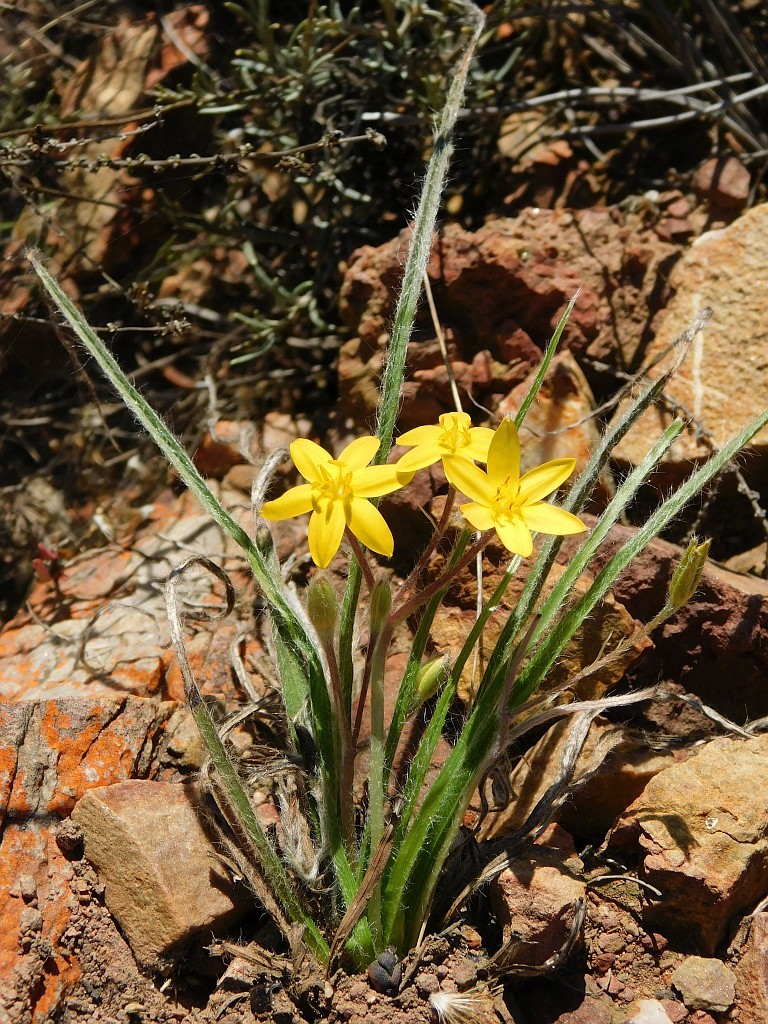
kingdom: Plantae
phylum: Tracheophyta
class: Liliopsida
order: Asparagales
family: Hypoxidaceae
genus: Hypoxis
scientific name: Hypoxis floccosa
